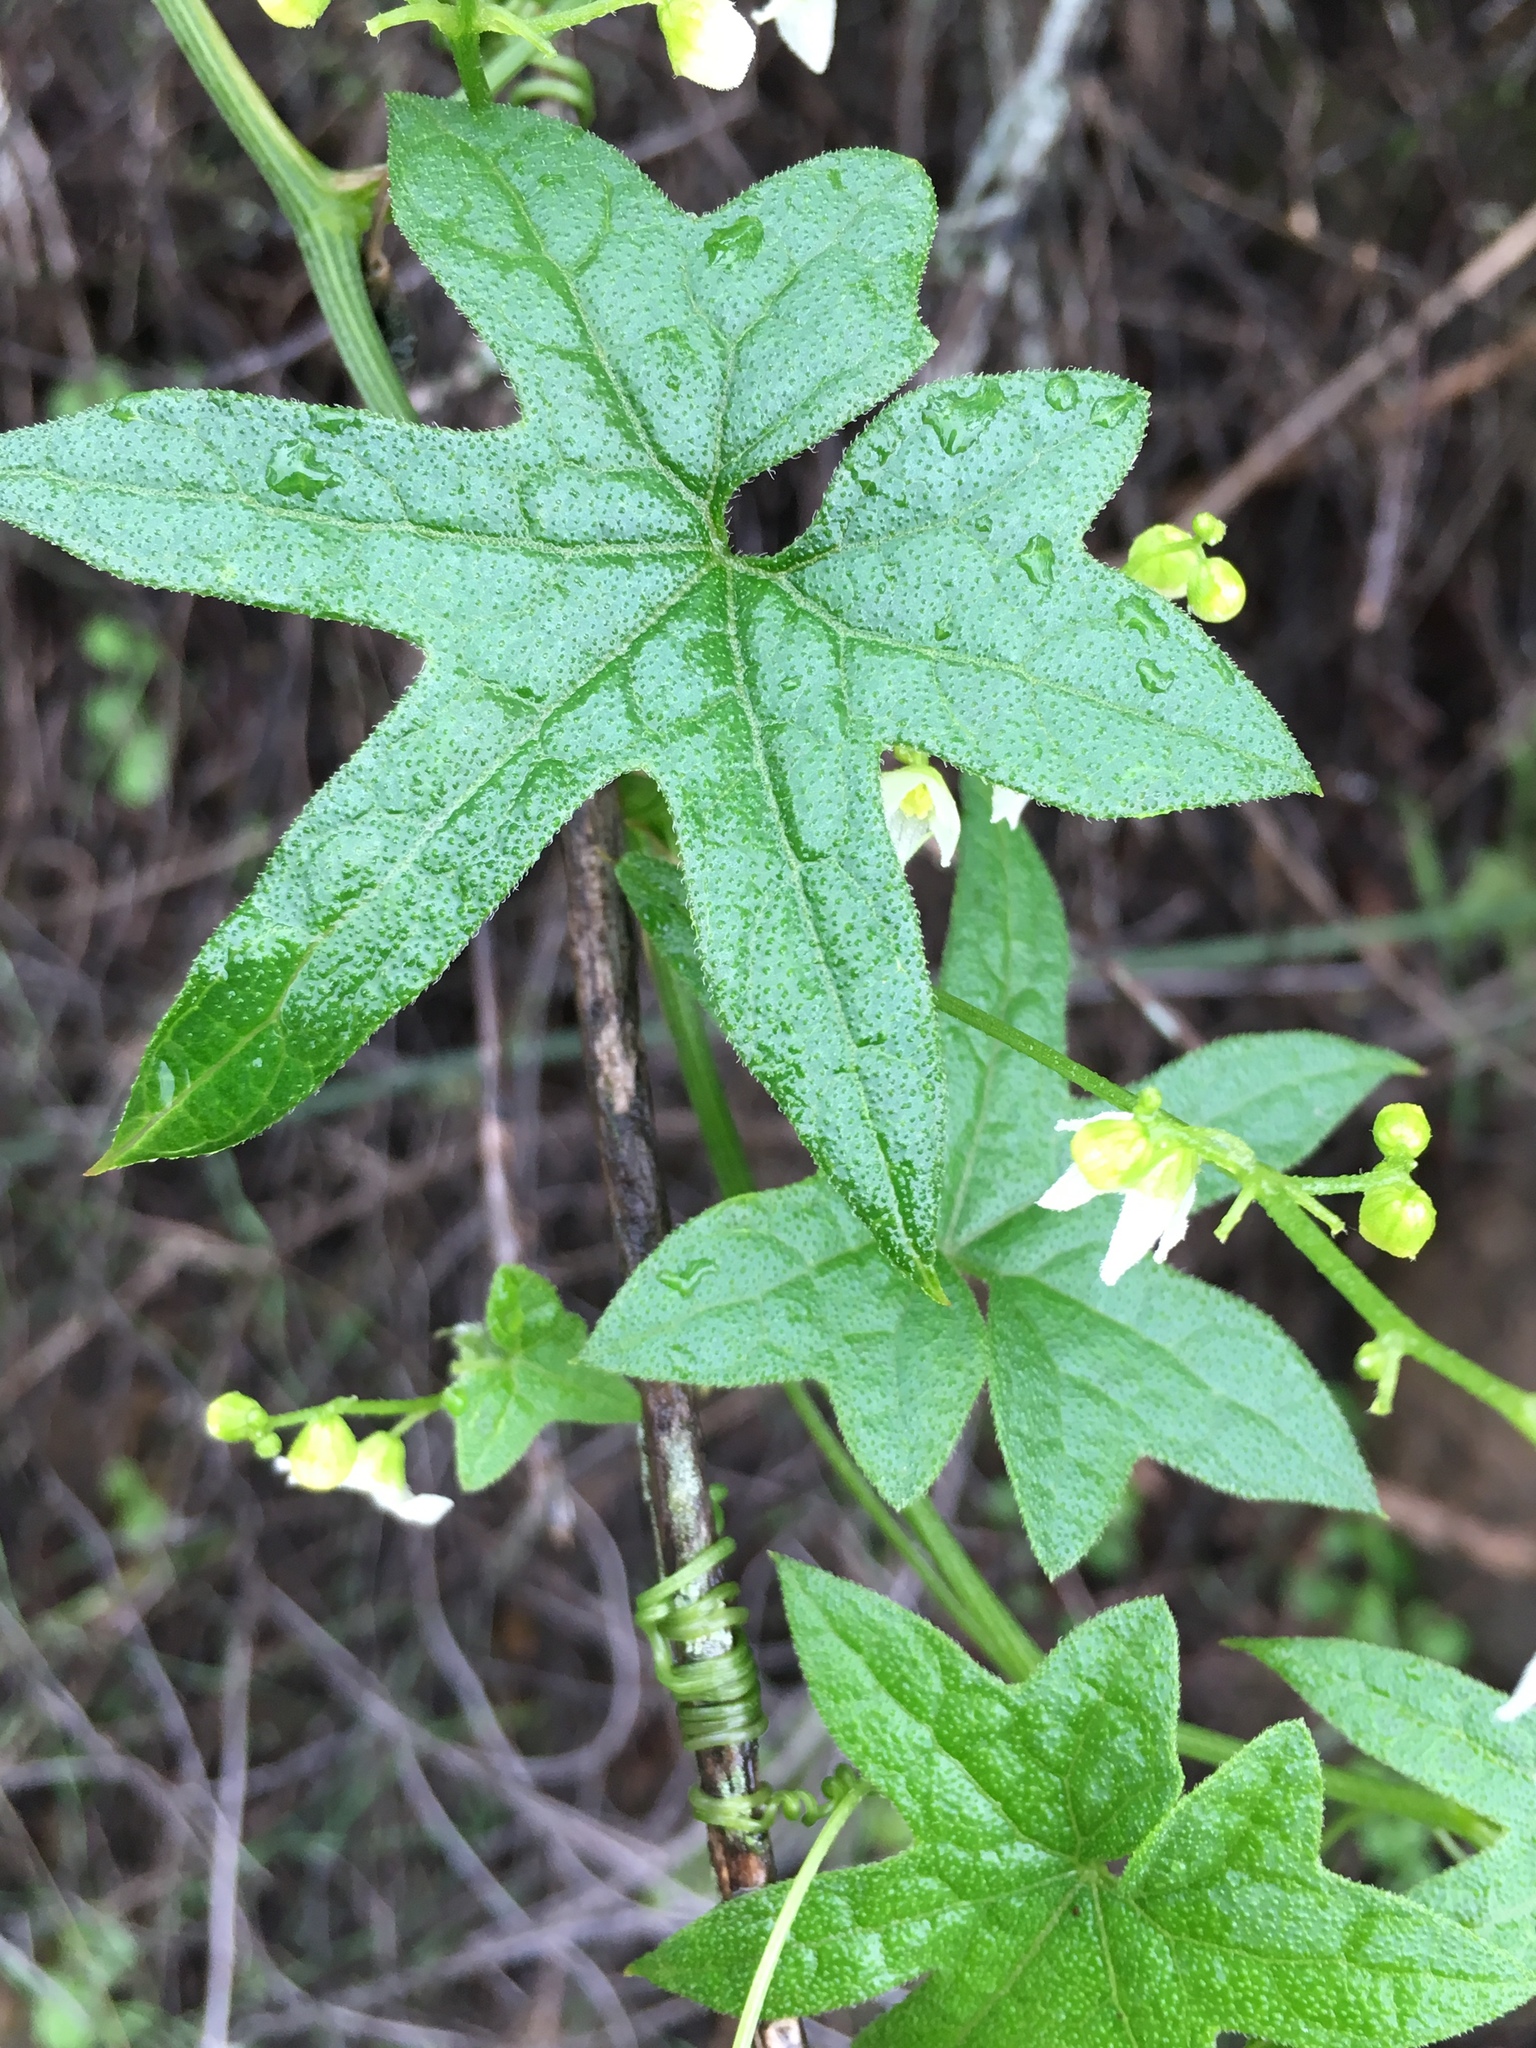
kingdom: Plantae
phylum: Tracheophyta
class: Magnoliopsida
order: Cucurbitales
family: Cucurbitaceae
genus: Marah
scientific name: Marah macrocarpa
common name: Cucamonga manroot
